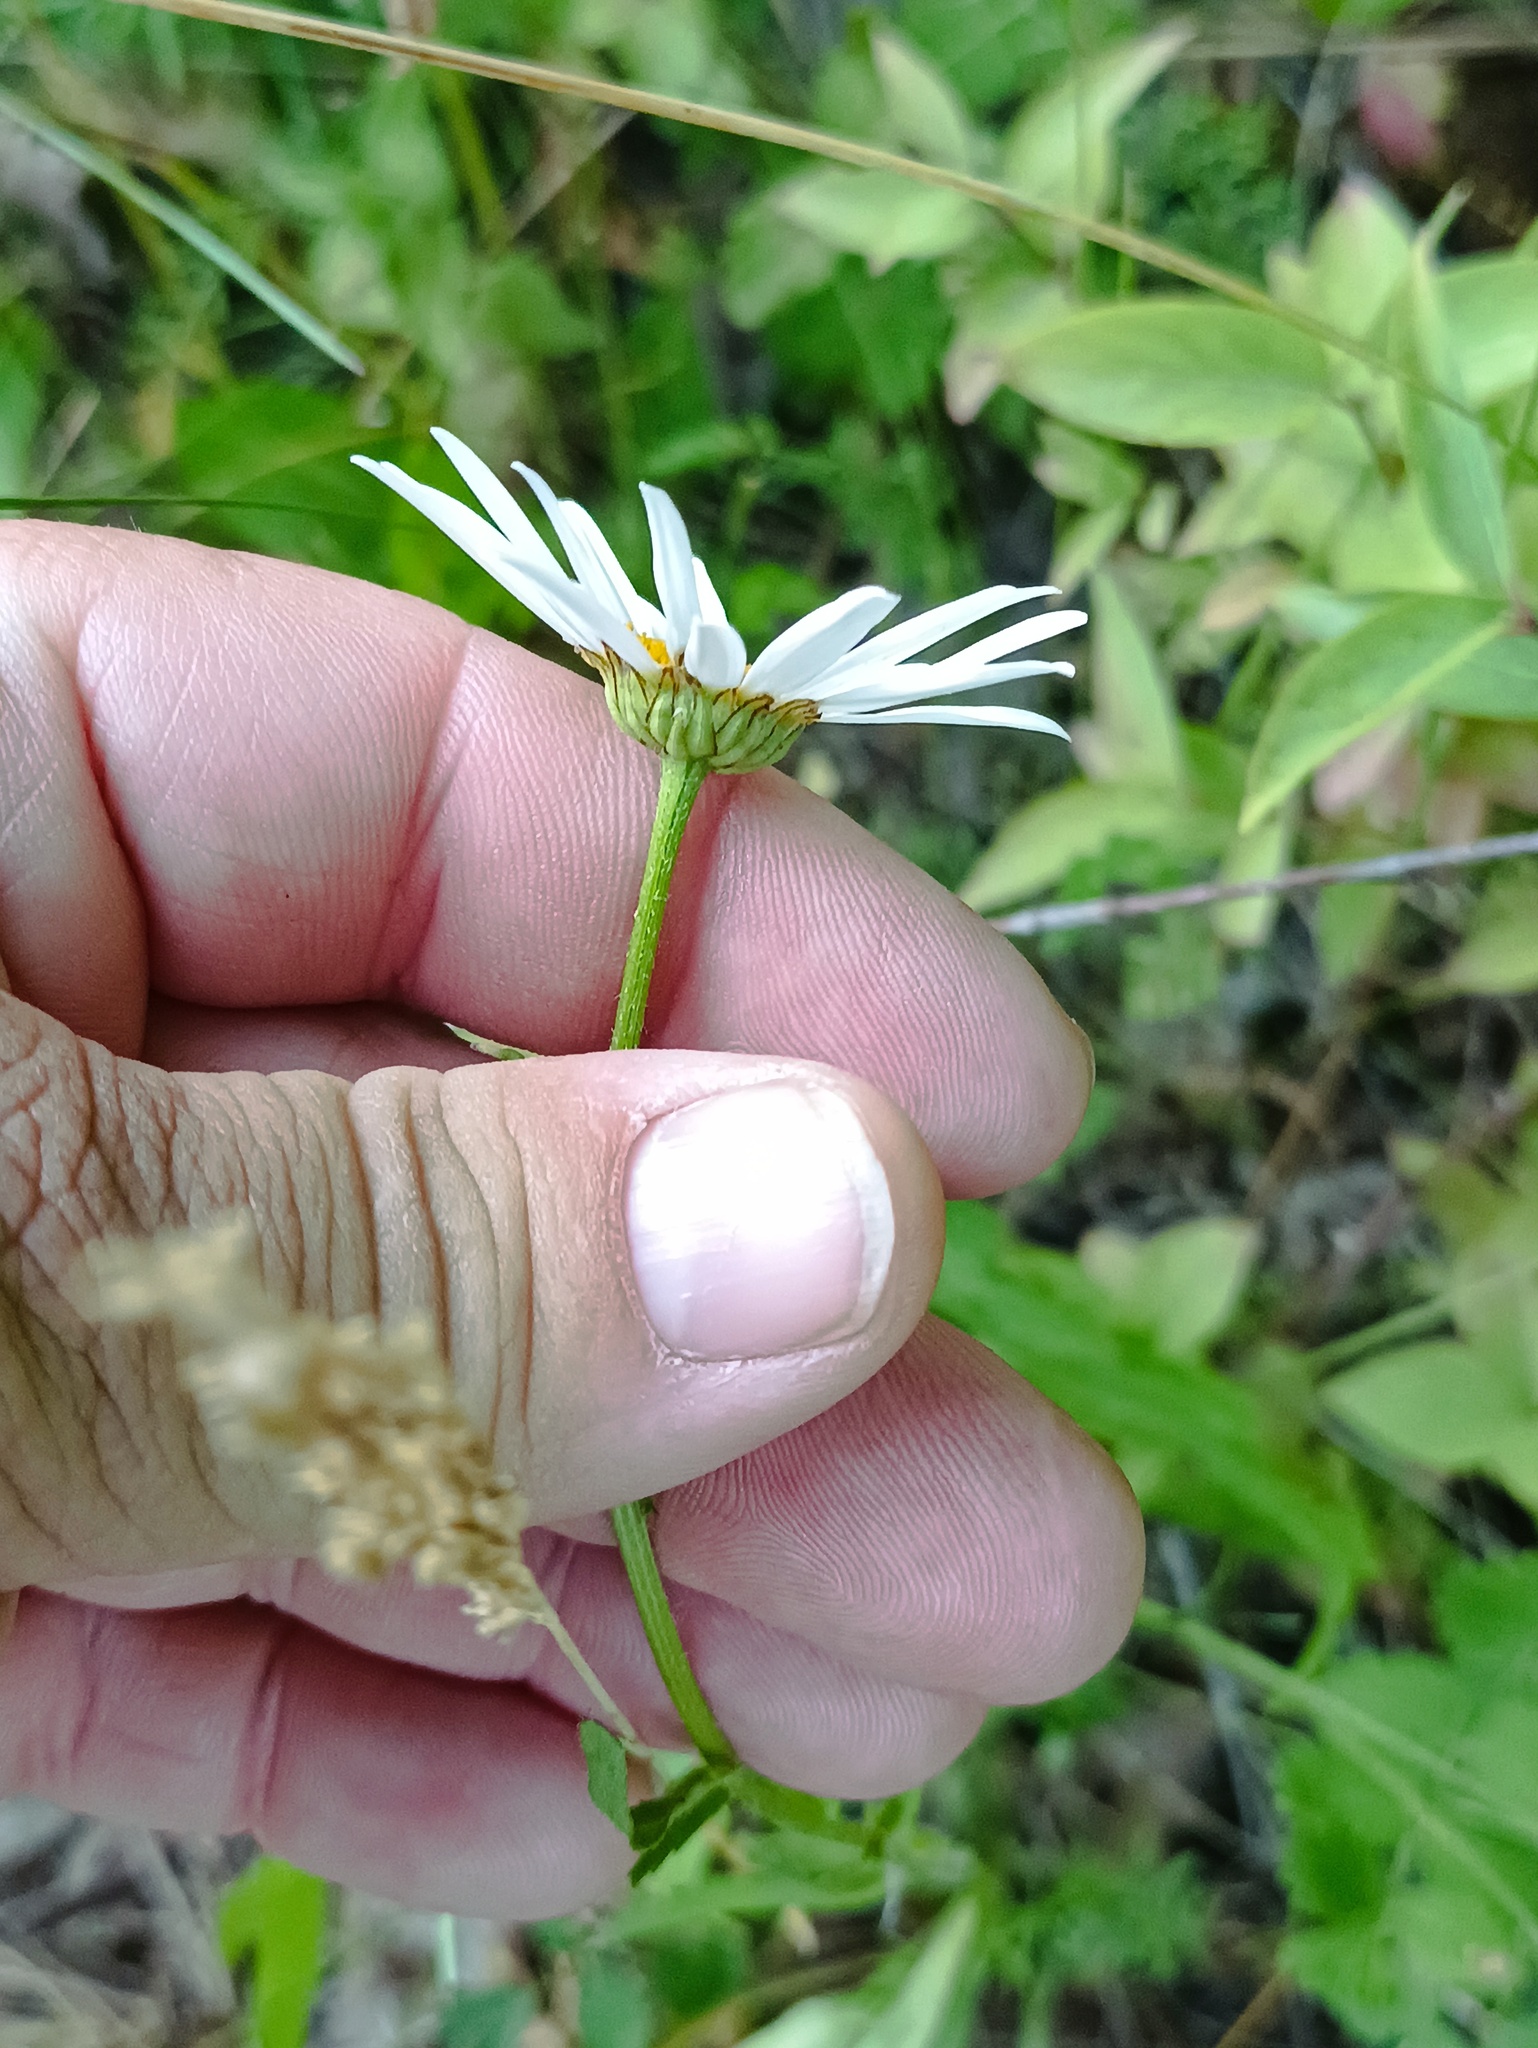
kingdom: Plantae
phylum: Tracheophyta
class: Magnoliopsida
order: Asterales
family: Asteraceae
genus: Leucanthemum
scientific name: Leucanthemum vulgare
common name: Oxeye daisy
